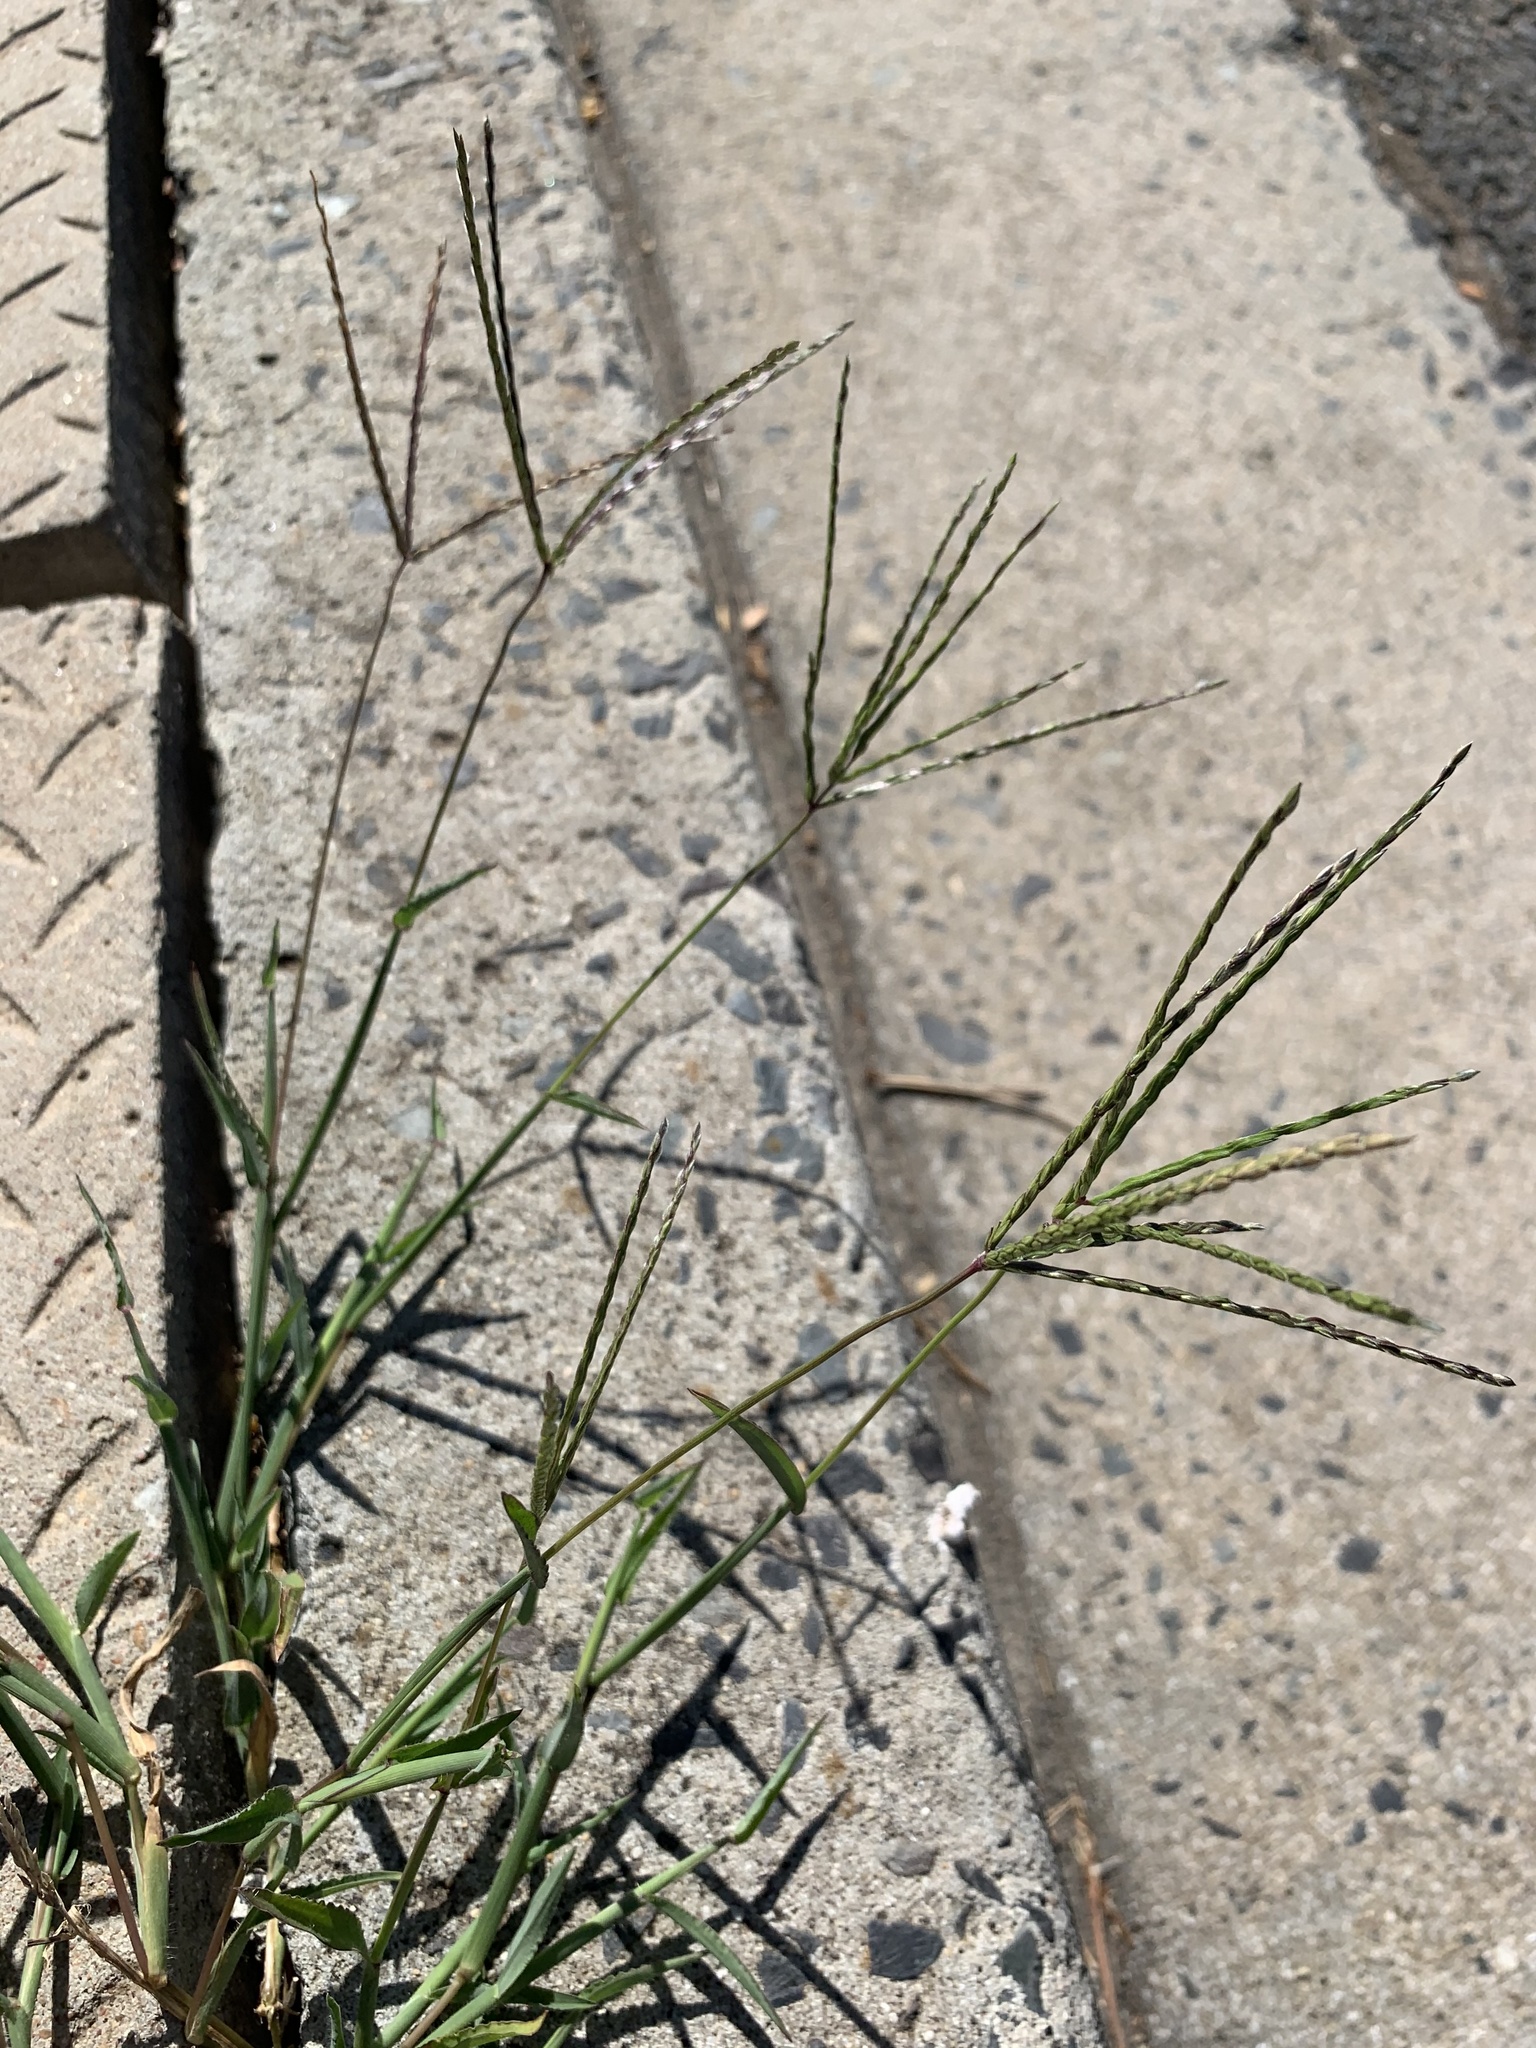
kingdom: Plantae
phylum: Tracheophyta
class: Liliopsida
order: Poales
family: Poaceae
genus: Digitaria
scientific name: Digitaria sanguinalis
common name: Hairy crabgrass
